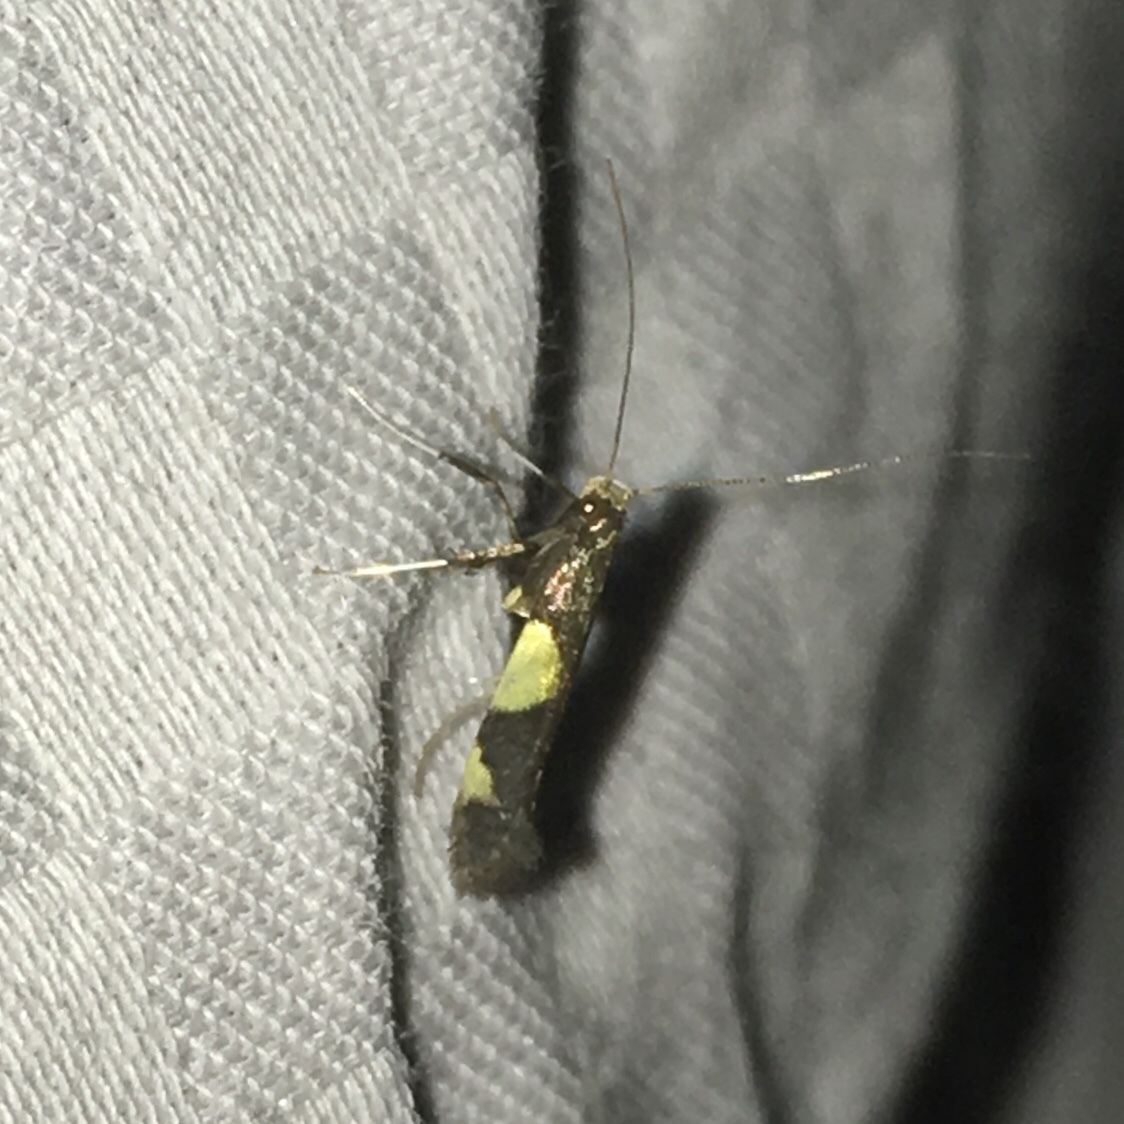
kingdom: Animalia
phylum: Arthropoda
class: Insecta
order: Lepidoptera
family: Gracillariidae
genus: Caloptilia
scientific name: Caloptilia bimaculatella
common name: Maple caloptilia moth
